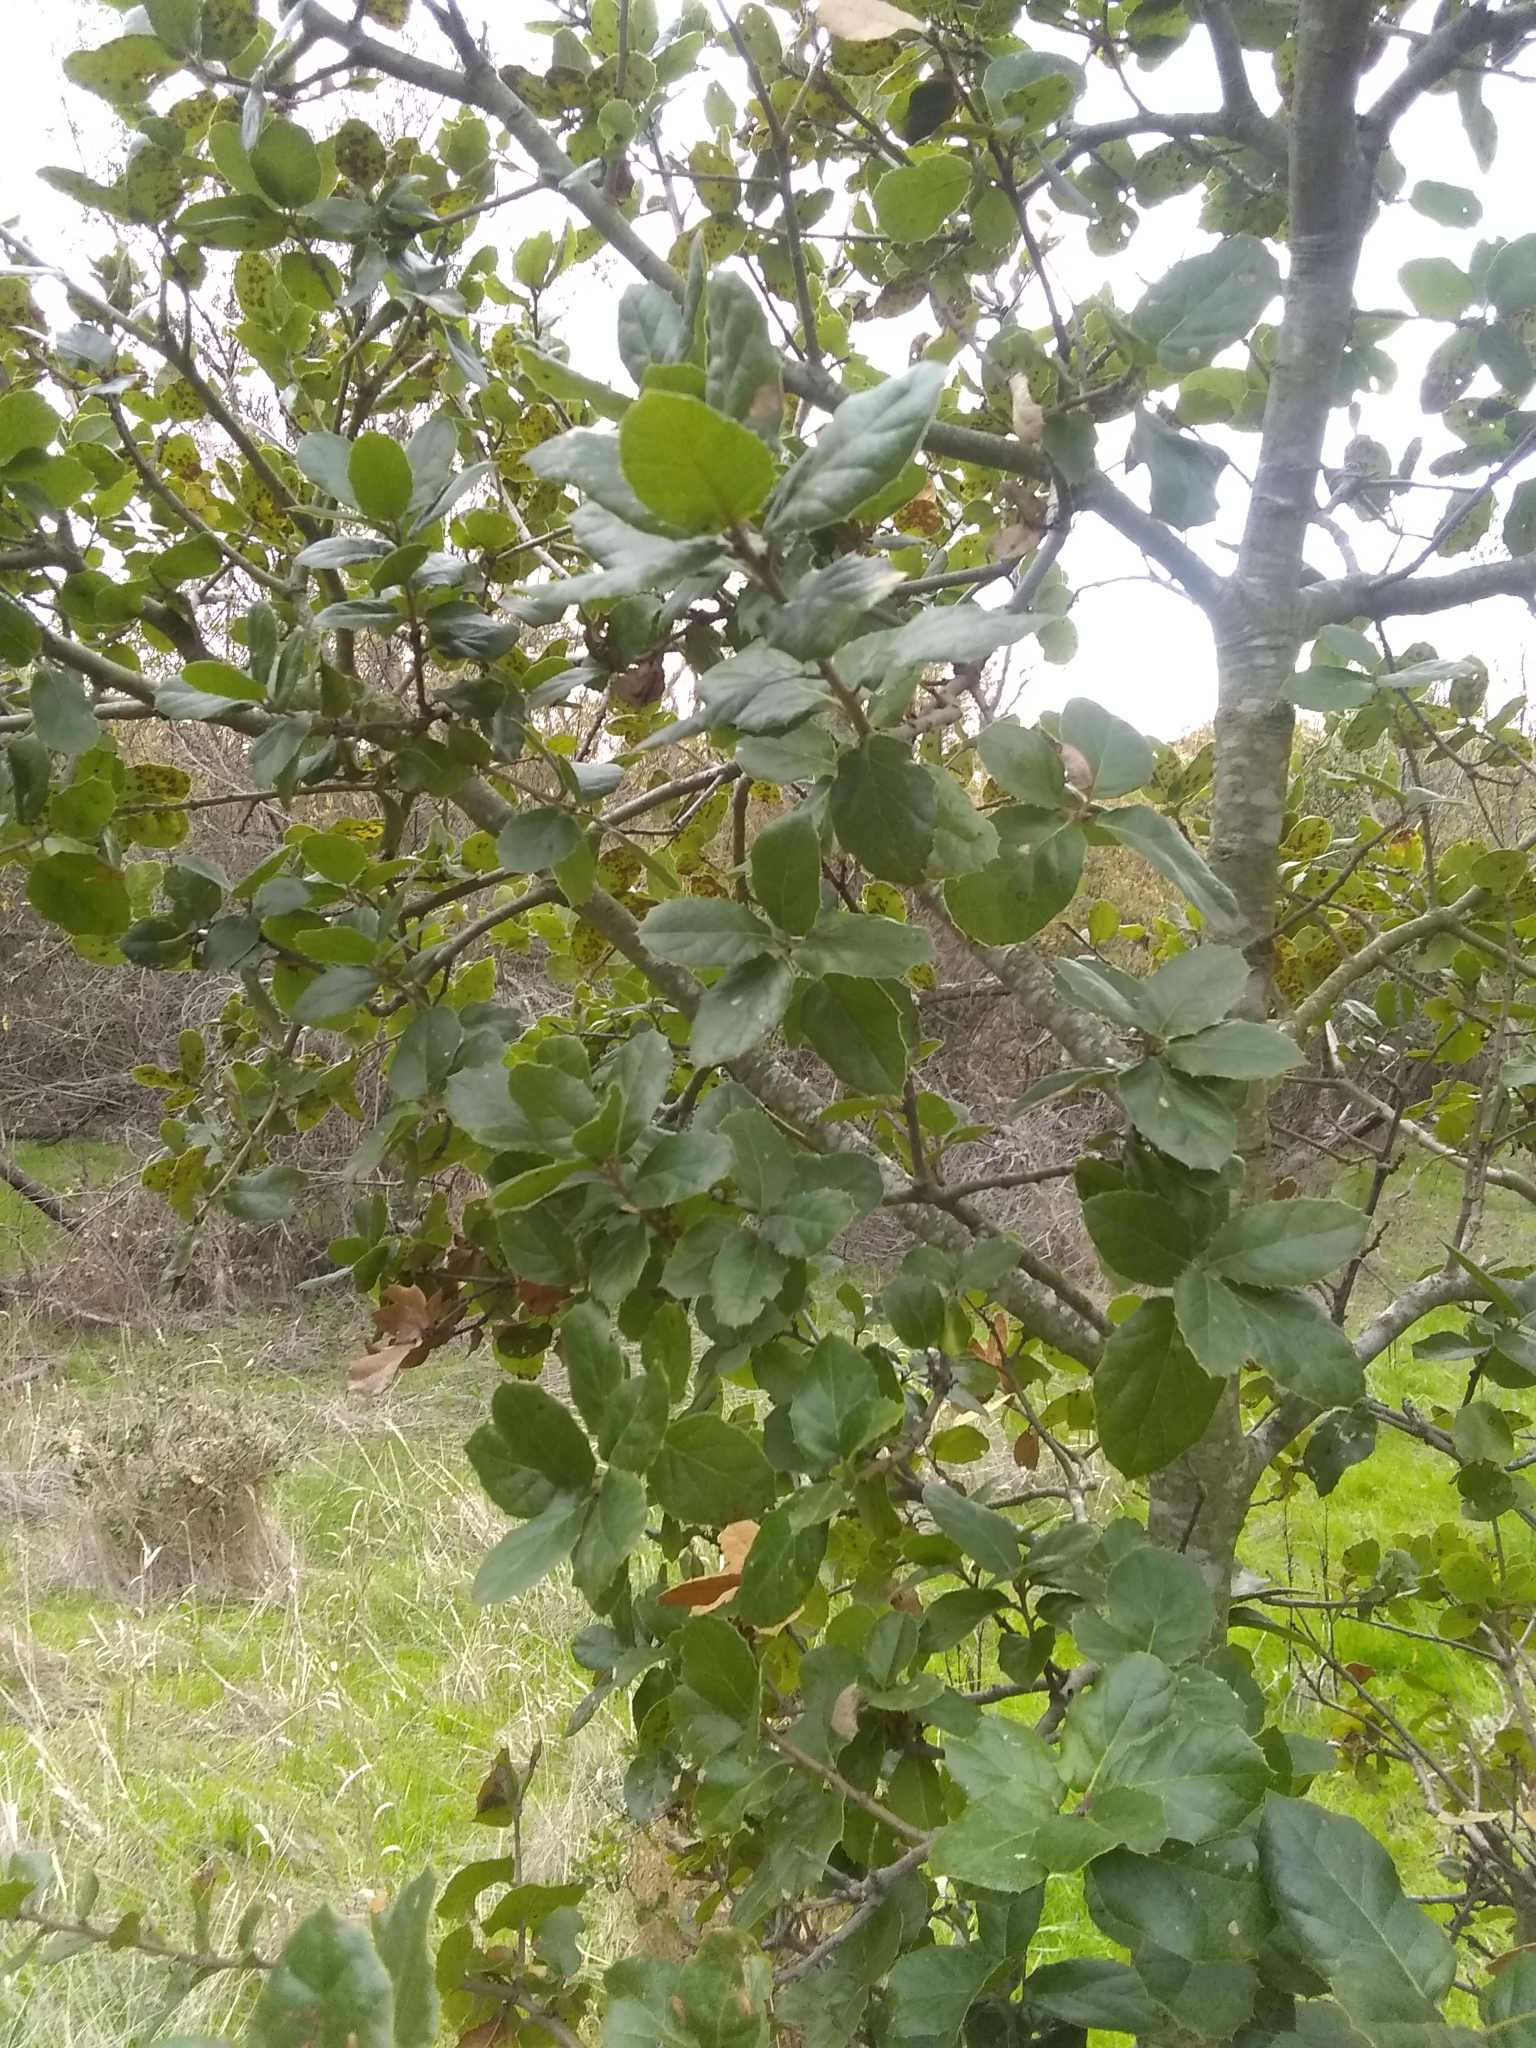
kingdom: Plantae
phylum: Tracheophyta
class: Magnoliopsida
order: Fagales
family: Fagaceae
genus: Quercus
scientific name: Quercus agrifolia
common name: California live oak
